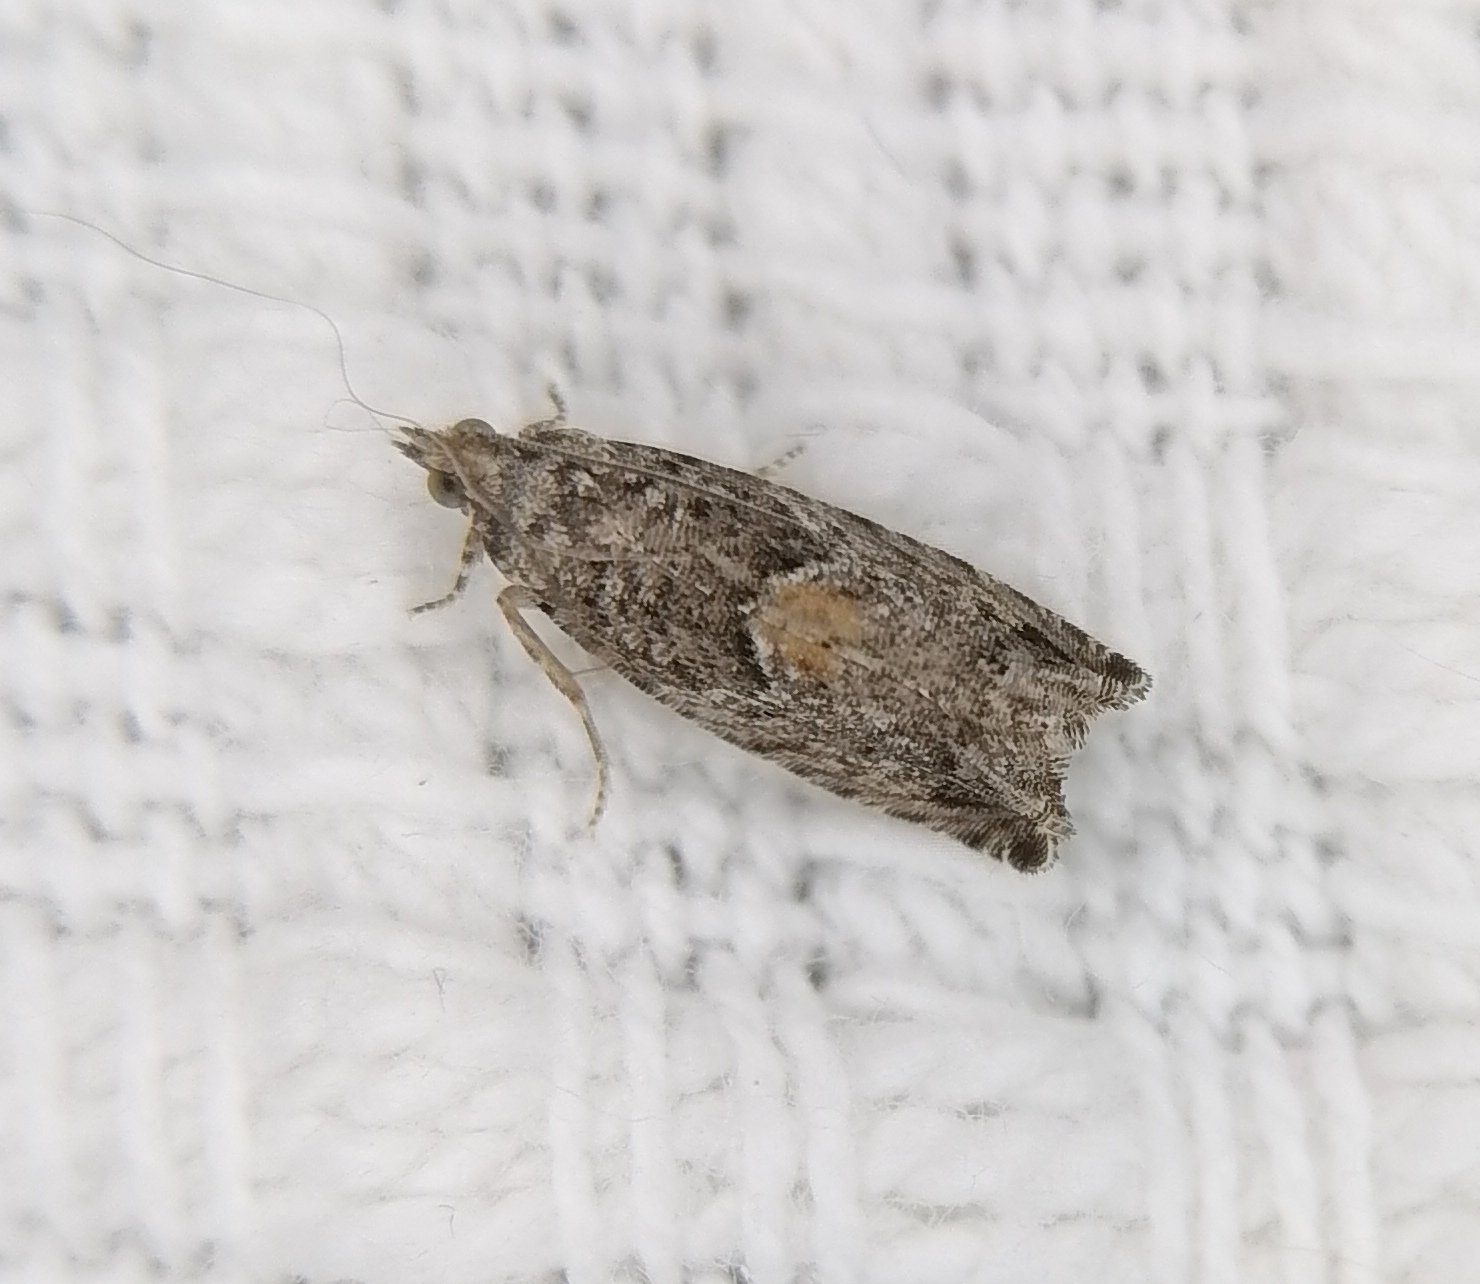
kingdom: Animalia
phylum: Arthropoda
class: Insecta
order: Lepidoptera
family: Tortricidae
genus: Epinotia
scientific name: Epinotia nisella
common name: Grey poplar bell
